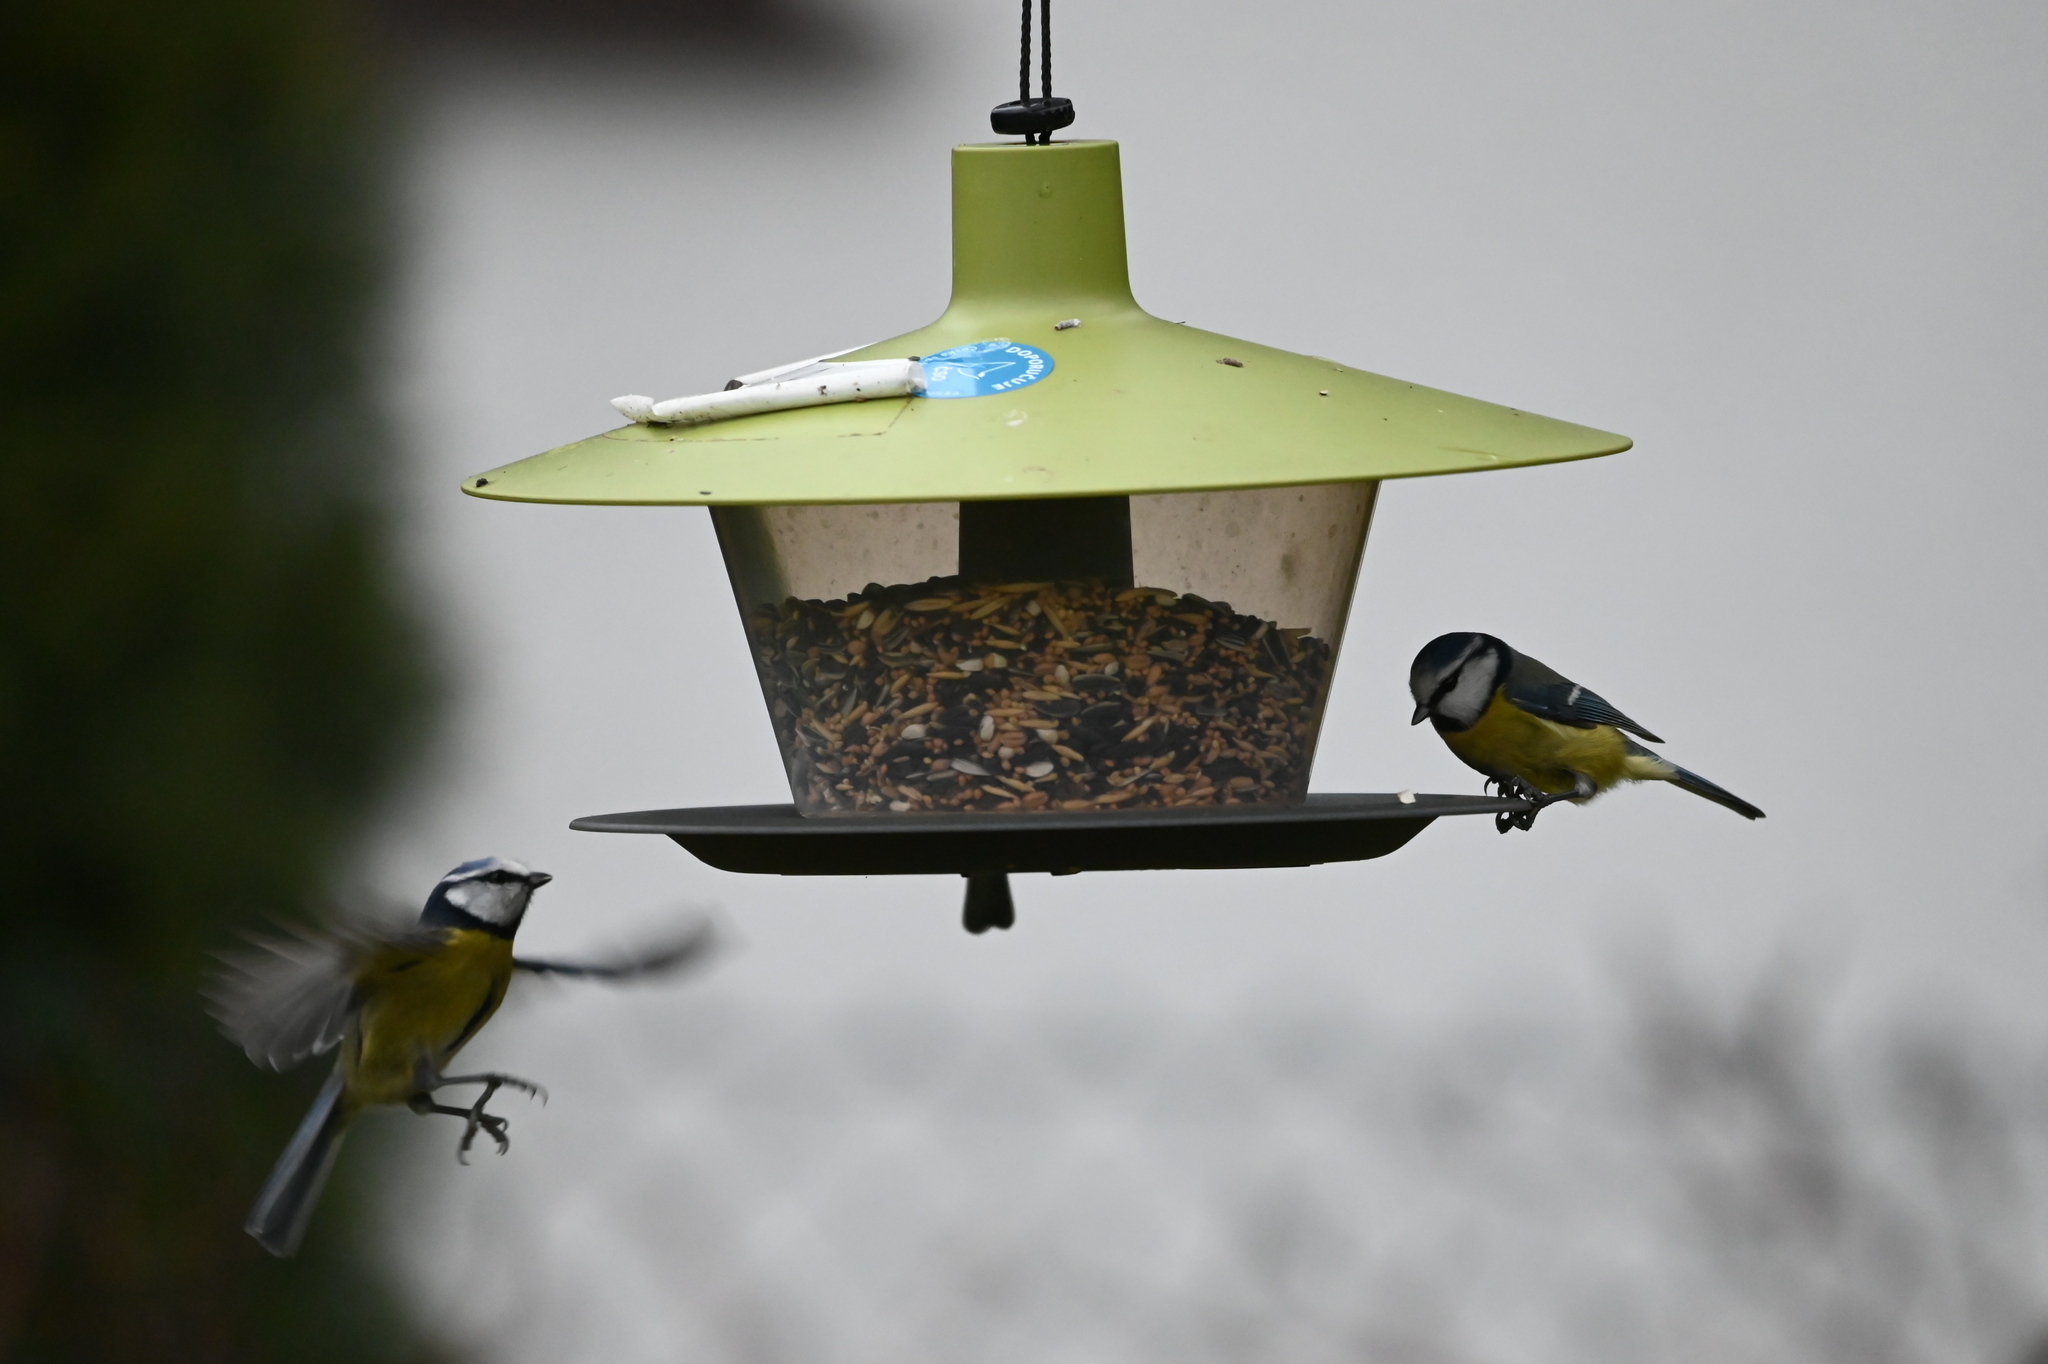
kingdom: Animalia
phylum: Chordata
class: Aves
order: Passeriformes
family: Paridae
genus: Cyanistes
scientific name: Cyanistes caeruleus
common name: Eurasian blue tit
